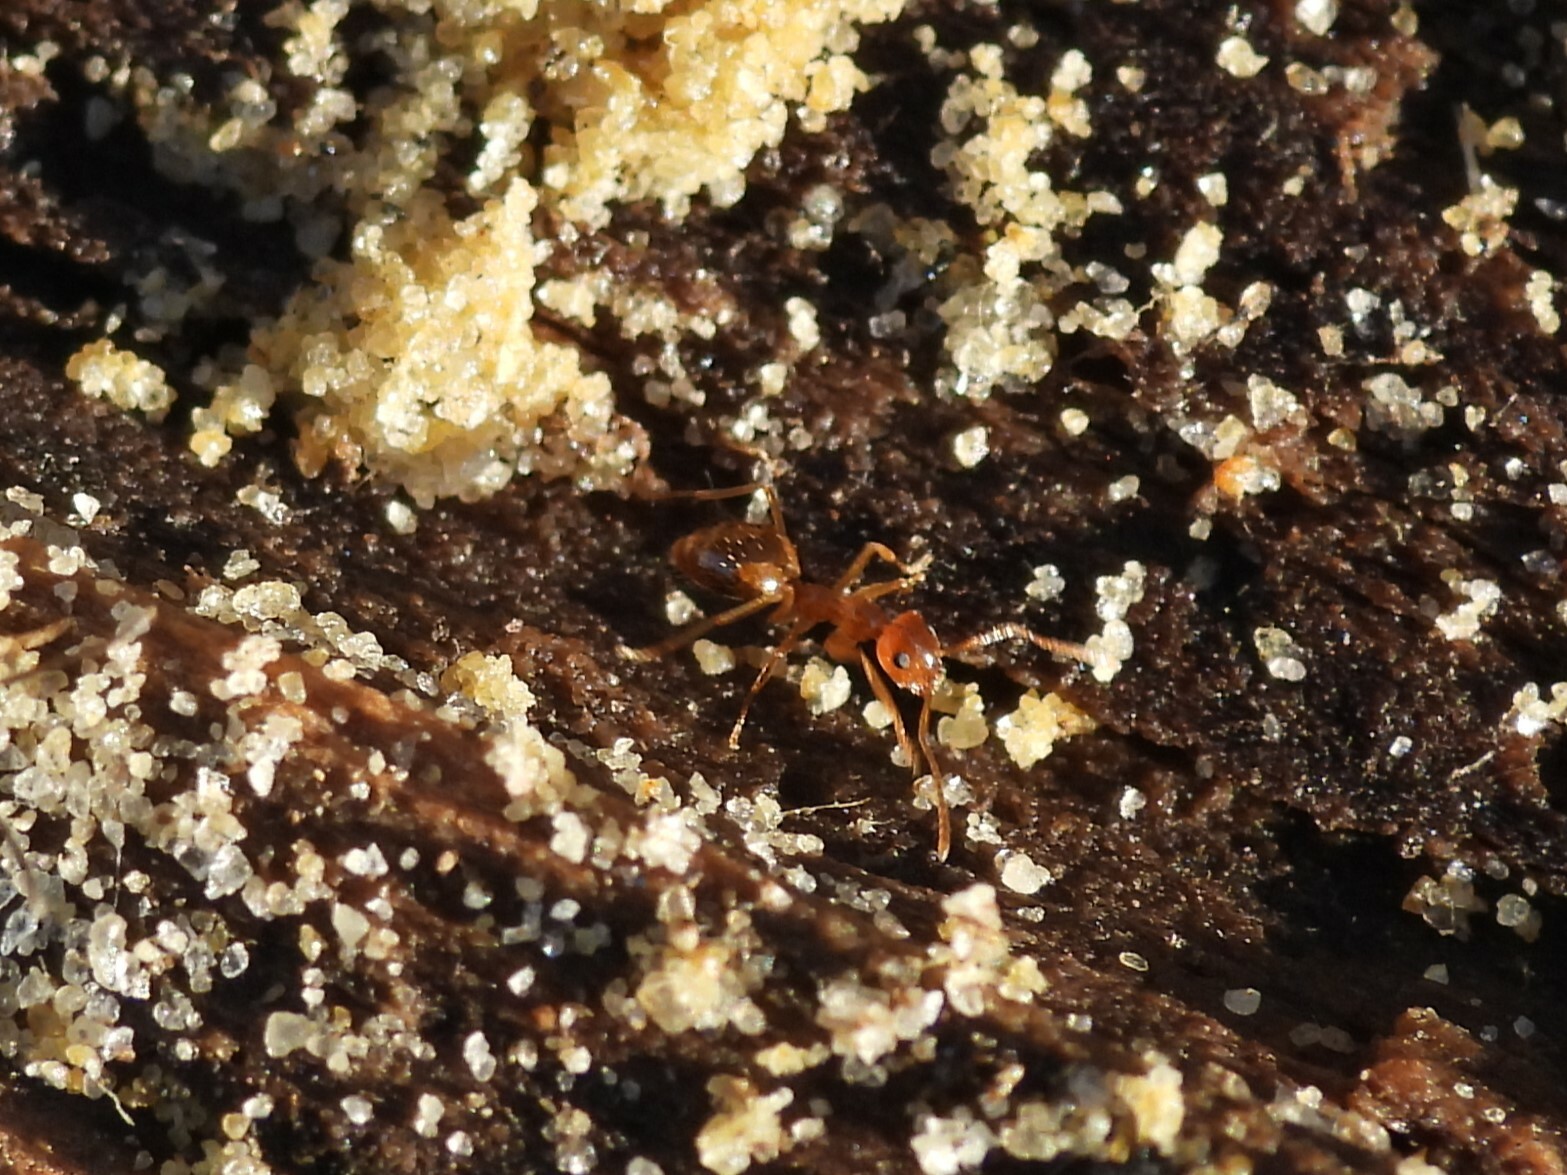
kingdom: Animalia
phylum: Arthropoda
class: Insecta
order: Hymenoptera
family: Formicidae
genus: Prenolepis
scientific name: Prenolepis imparis
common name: Small honey ant
